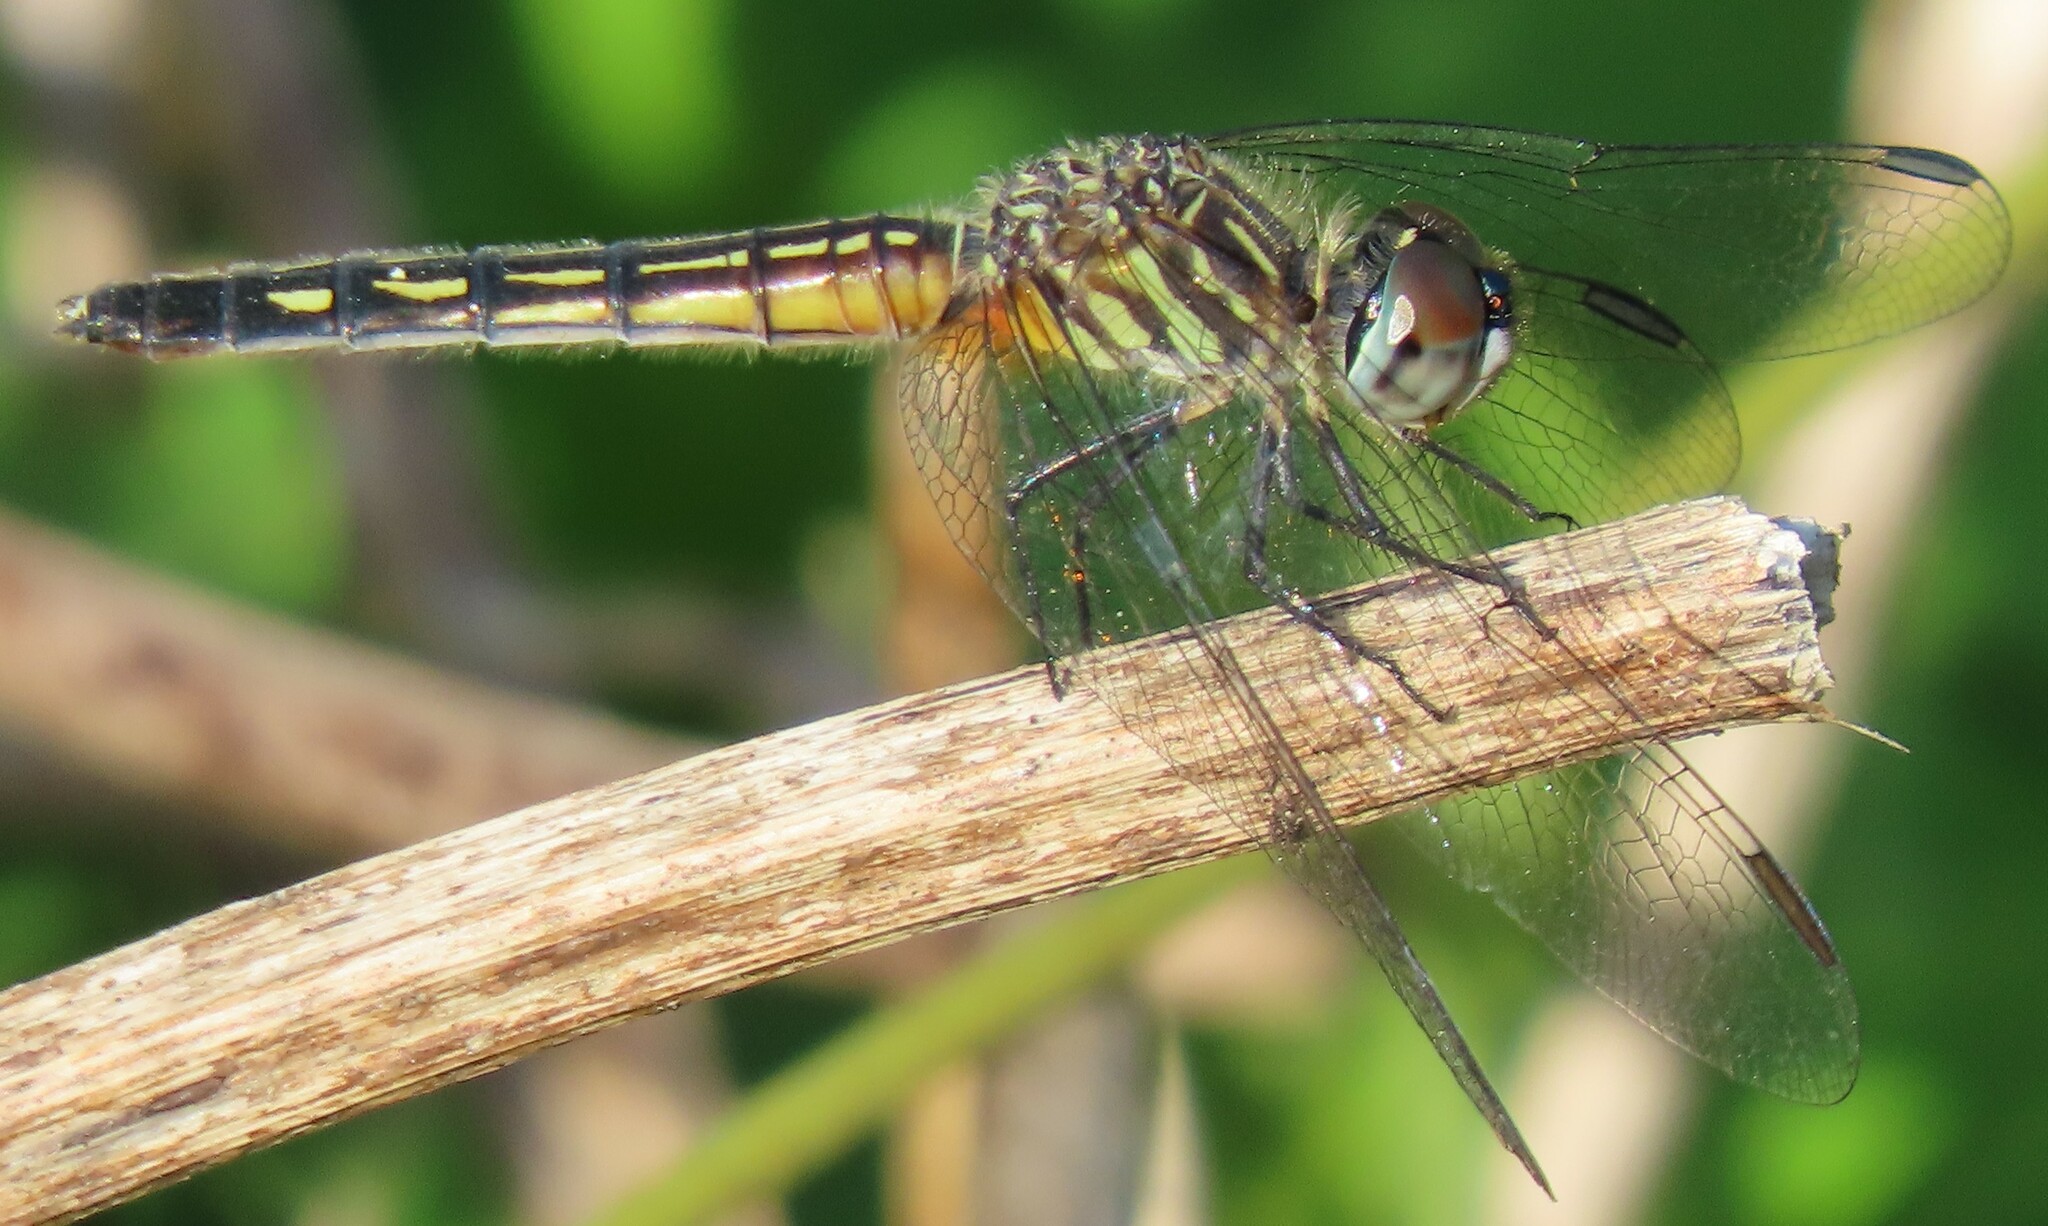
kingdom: Animalia
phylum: Arthropoda
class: Insecta
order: Odonata
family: Libellulidae
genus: Pachydiplax
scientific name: Pachydiplax longipennis
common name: Blue dasher
